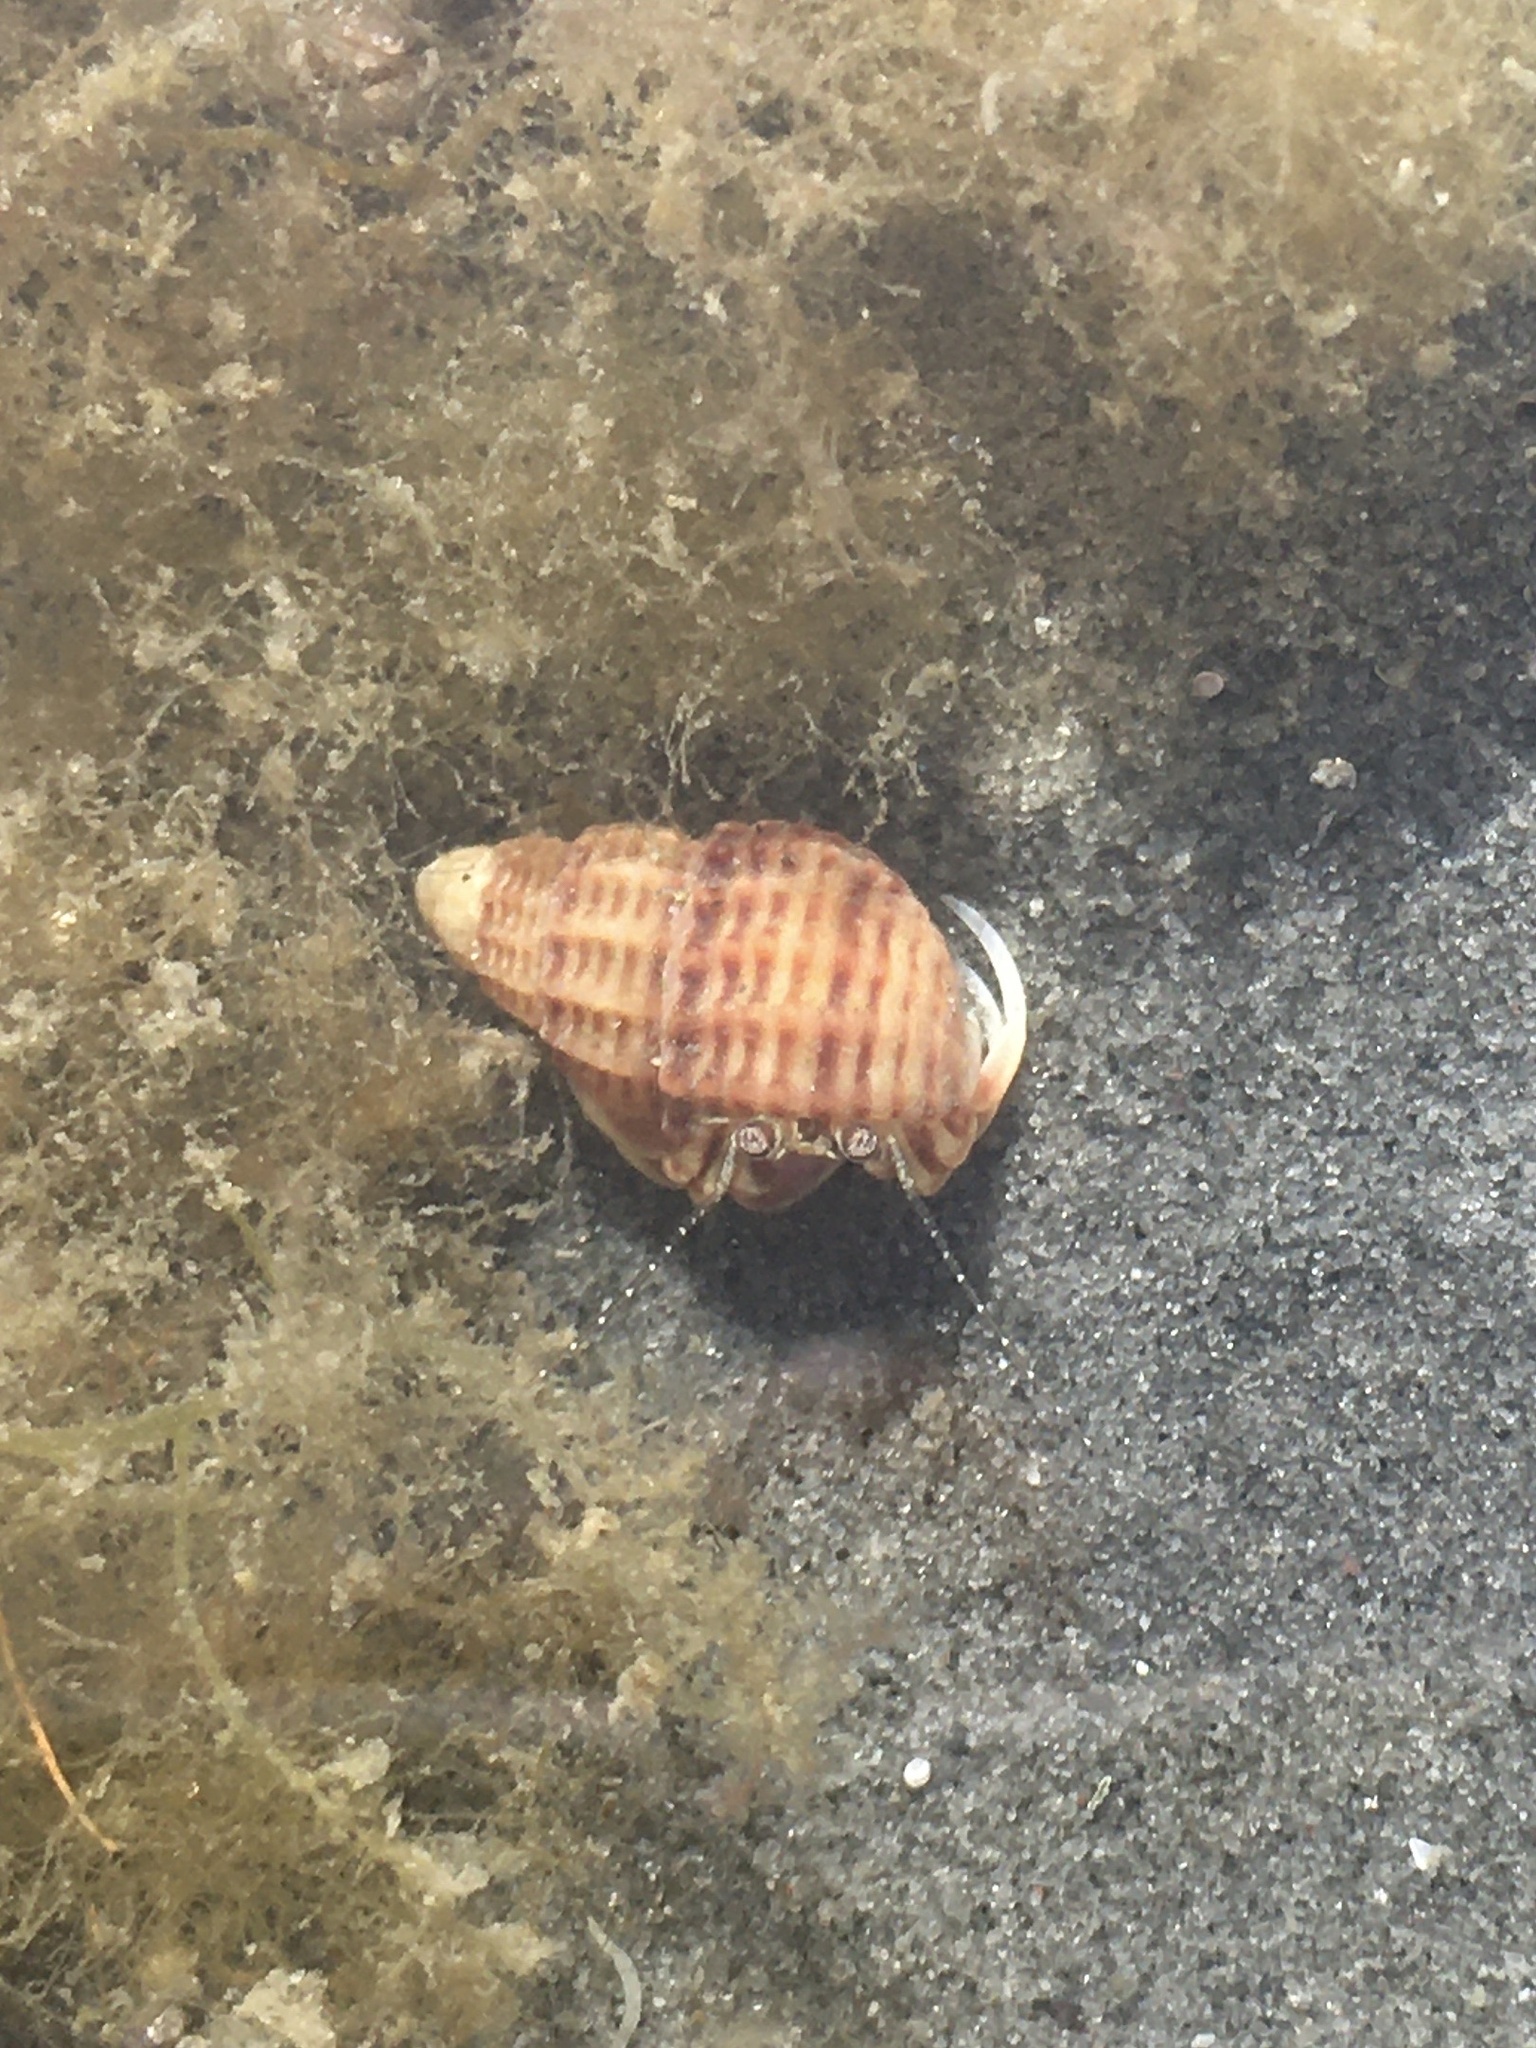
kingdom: Animalia
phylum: Arthropoda
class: Malacostraca
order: Decapoda
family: Paguridae
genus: Pagurus
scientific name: Pagurus longicarpus
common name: Long-armed hermit crab
